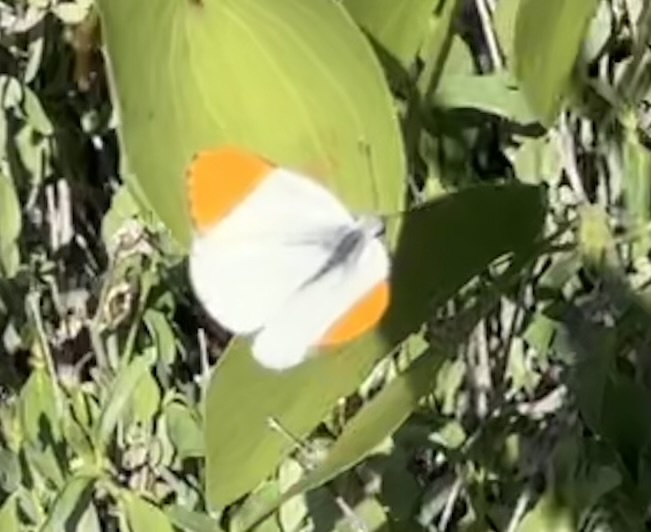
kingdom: Animalia
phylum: Arthropoda
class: Insecta
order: Lepidoptera
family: Pieridae
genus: Colotis
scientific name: Colotis evenina
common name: Common orange tip
